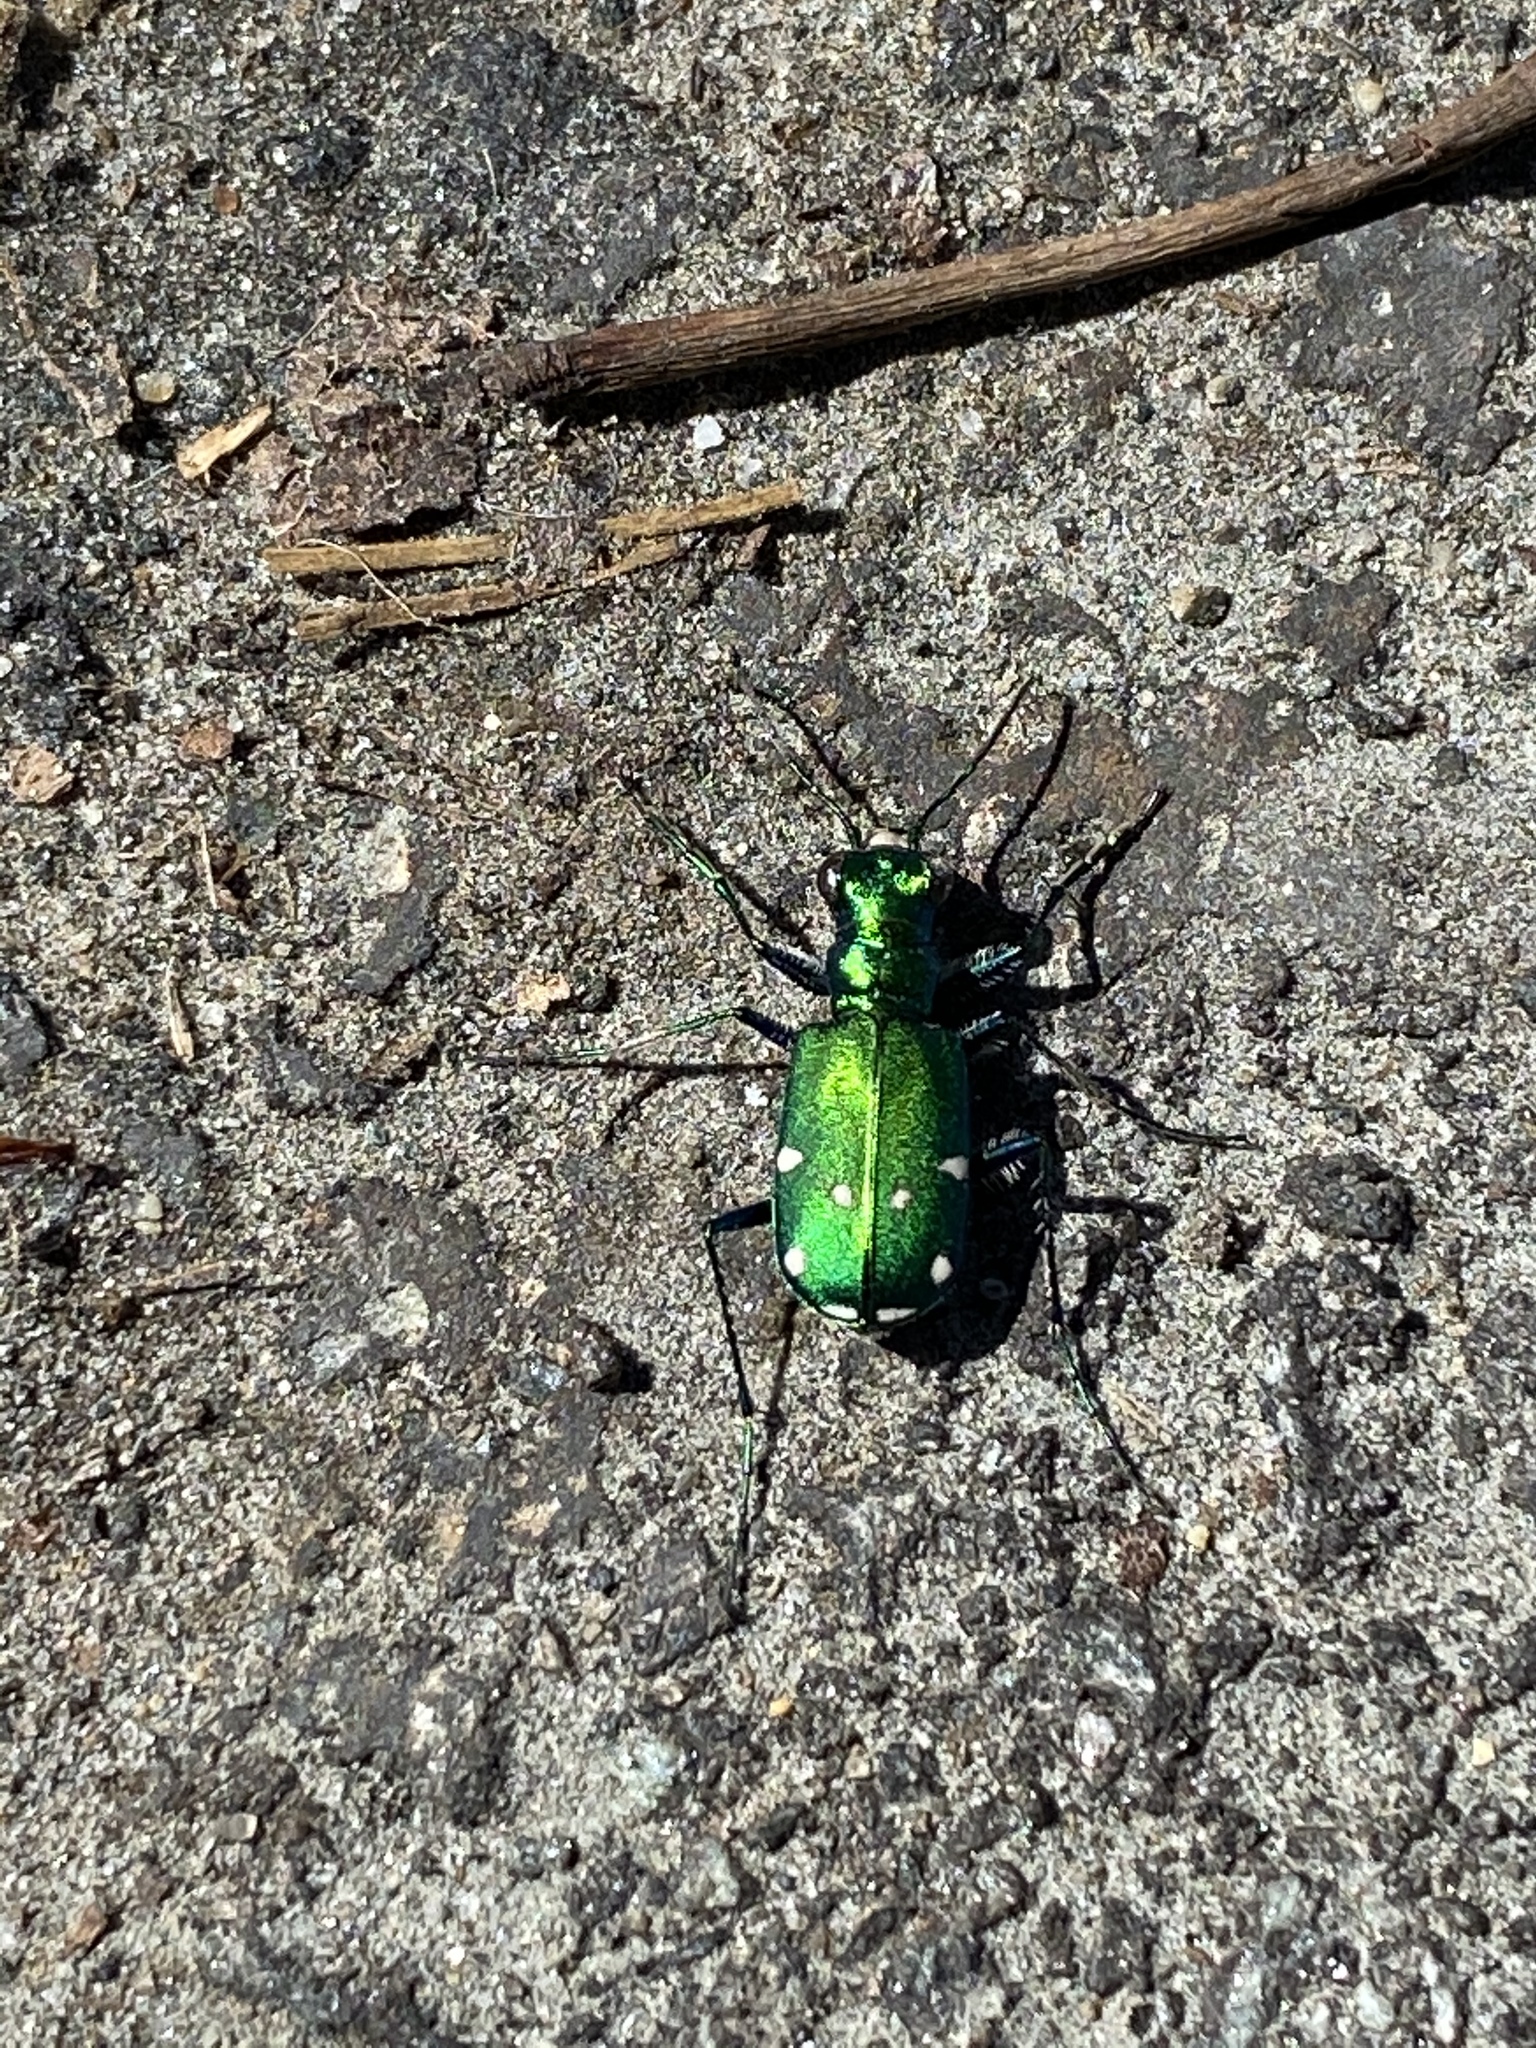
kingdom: Animalia
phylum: Arthropoda
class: Insecta
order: Coleoptera
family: Carabidae
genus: Cicindela
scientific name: Cicindela sexguttata
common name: Six-spotted tiger beetle
